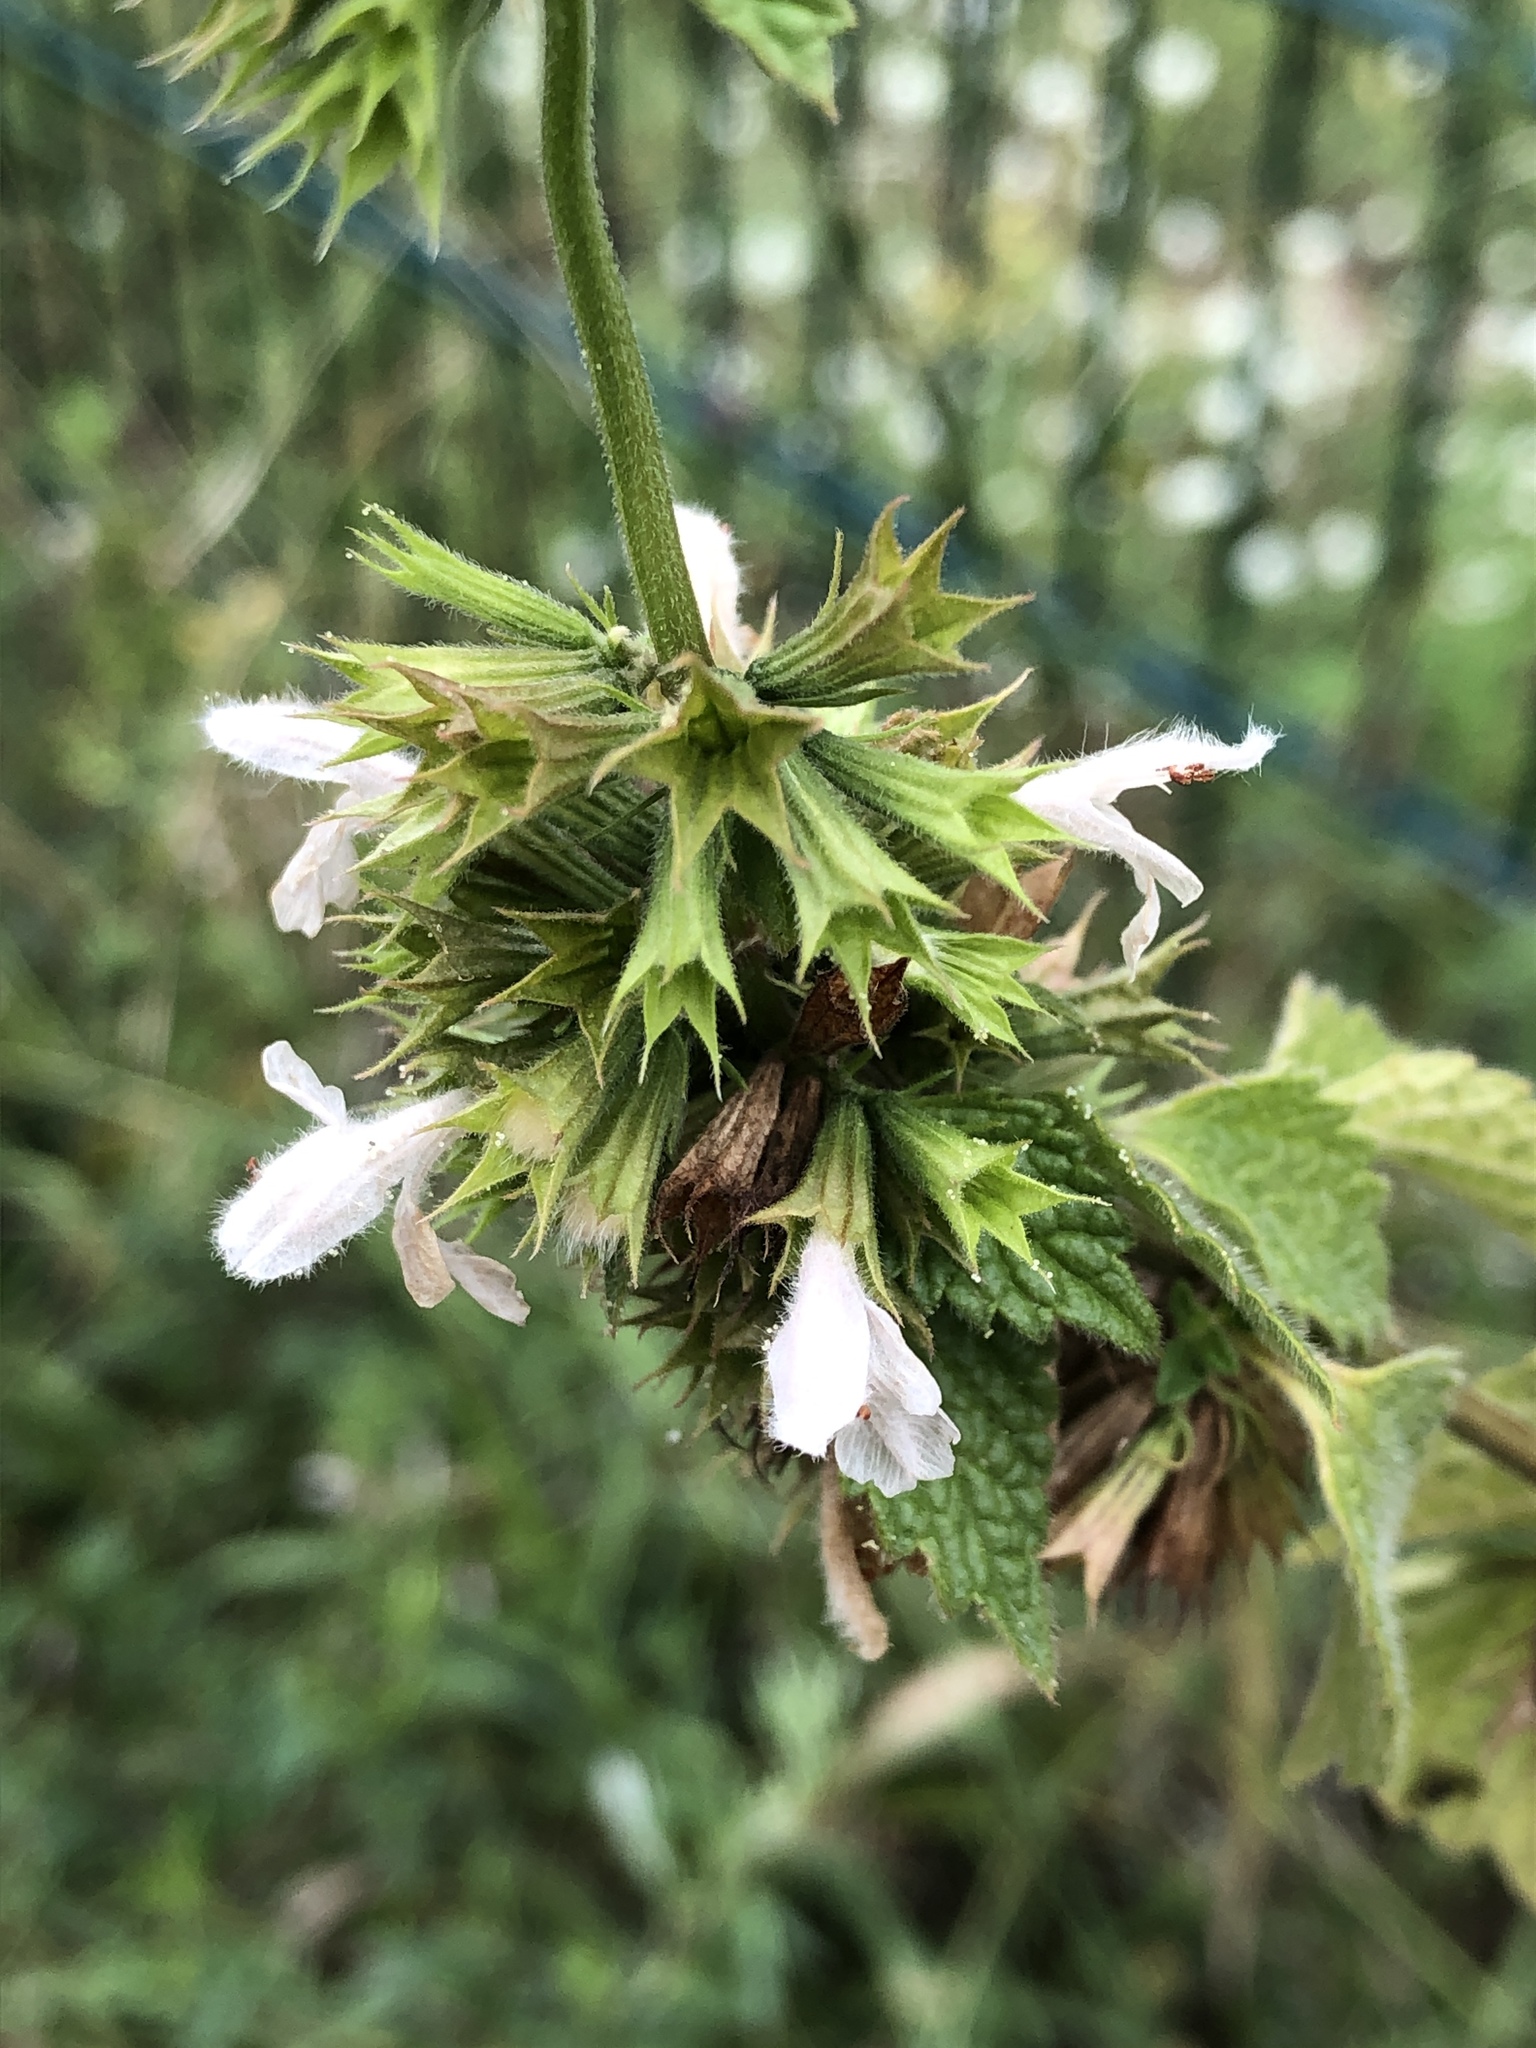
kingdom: Plantae
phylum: Tracheophyta
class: Magnoliopsida
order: Lamiales
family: Lamiaceae
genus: Ballota
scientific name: Ballota nigra
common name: Black horehound
